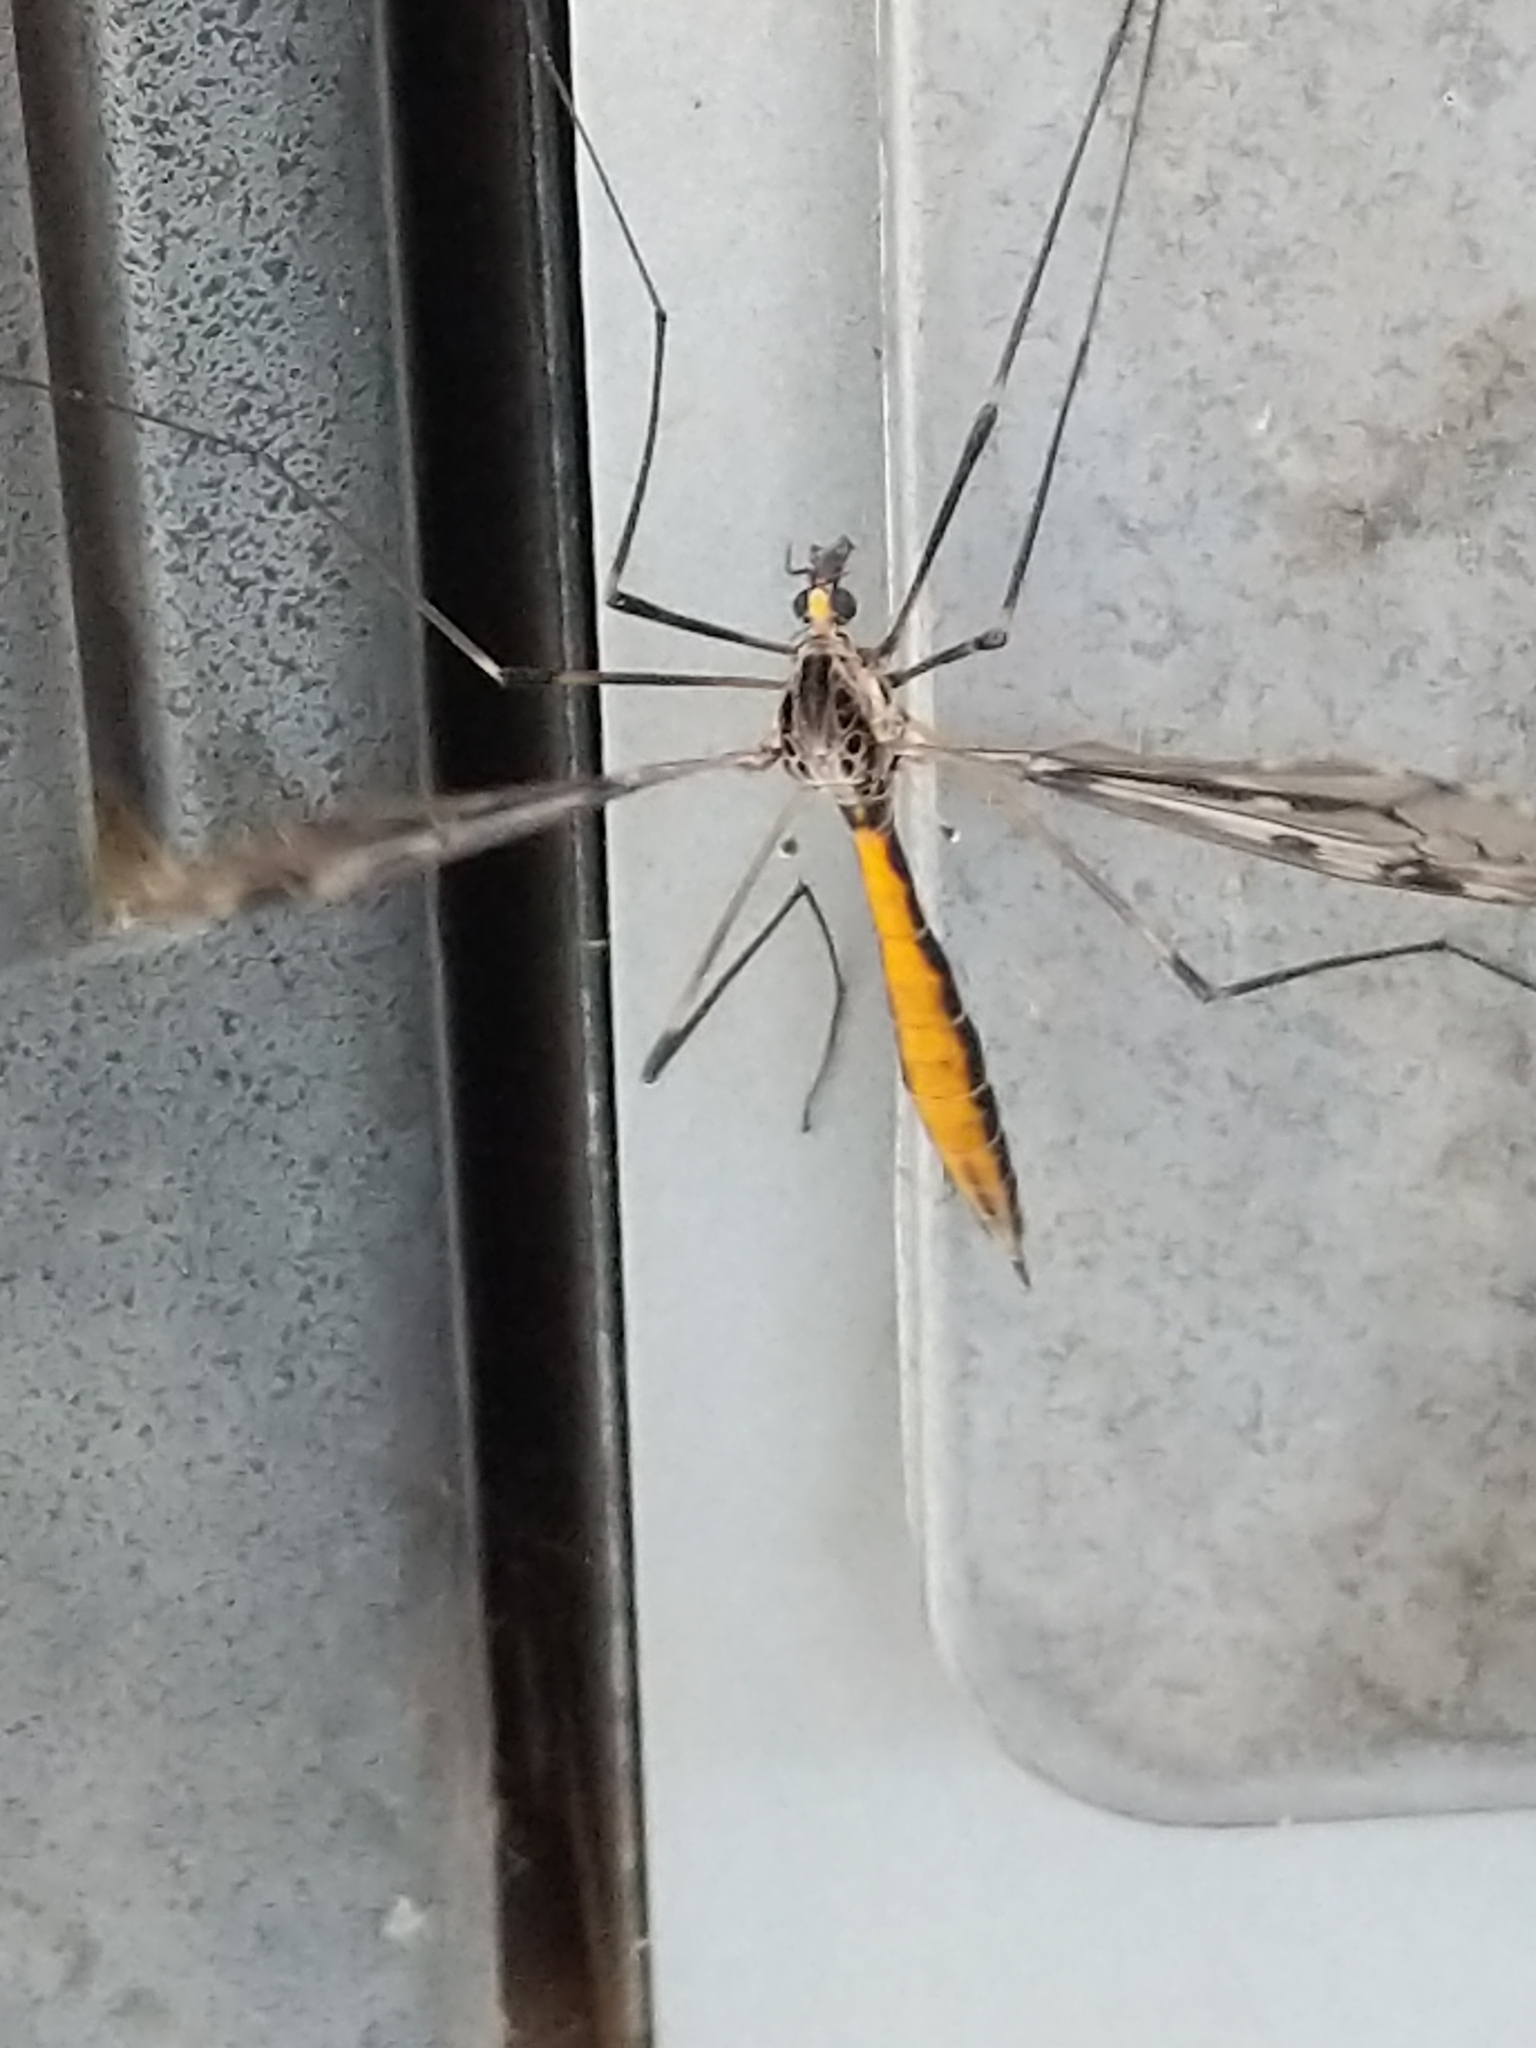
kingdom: Animalia
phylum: Arthropoda
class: Insecta
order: Diptera
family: Tipulidae
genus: Tipula
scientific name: Tipula abdominalis
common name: Giant crane fly
